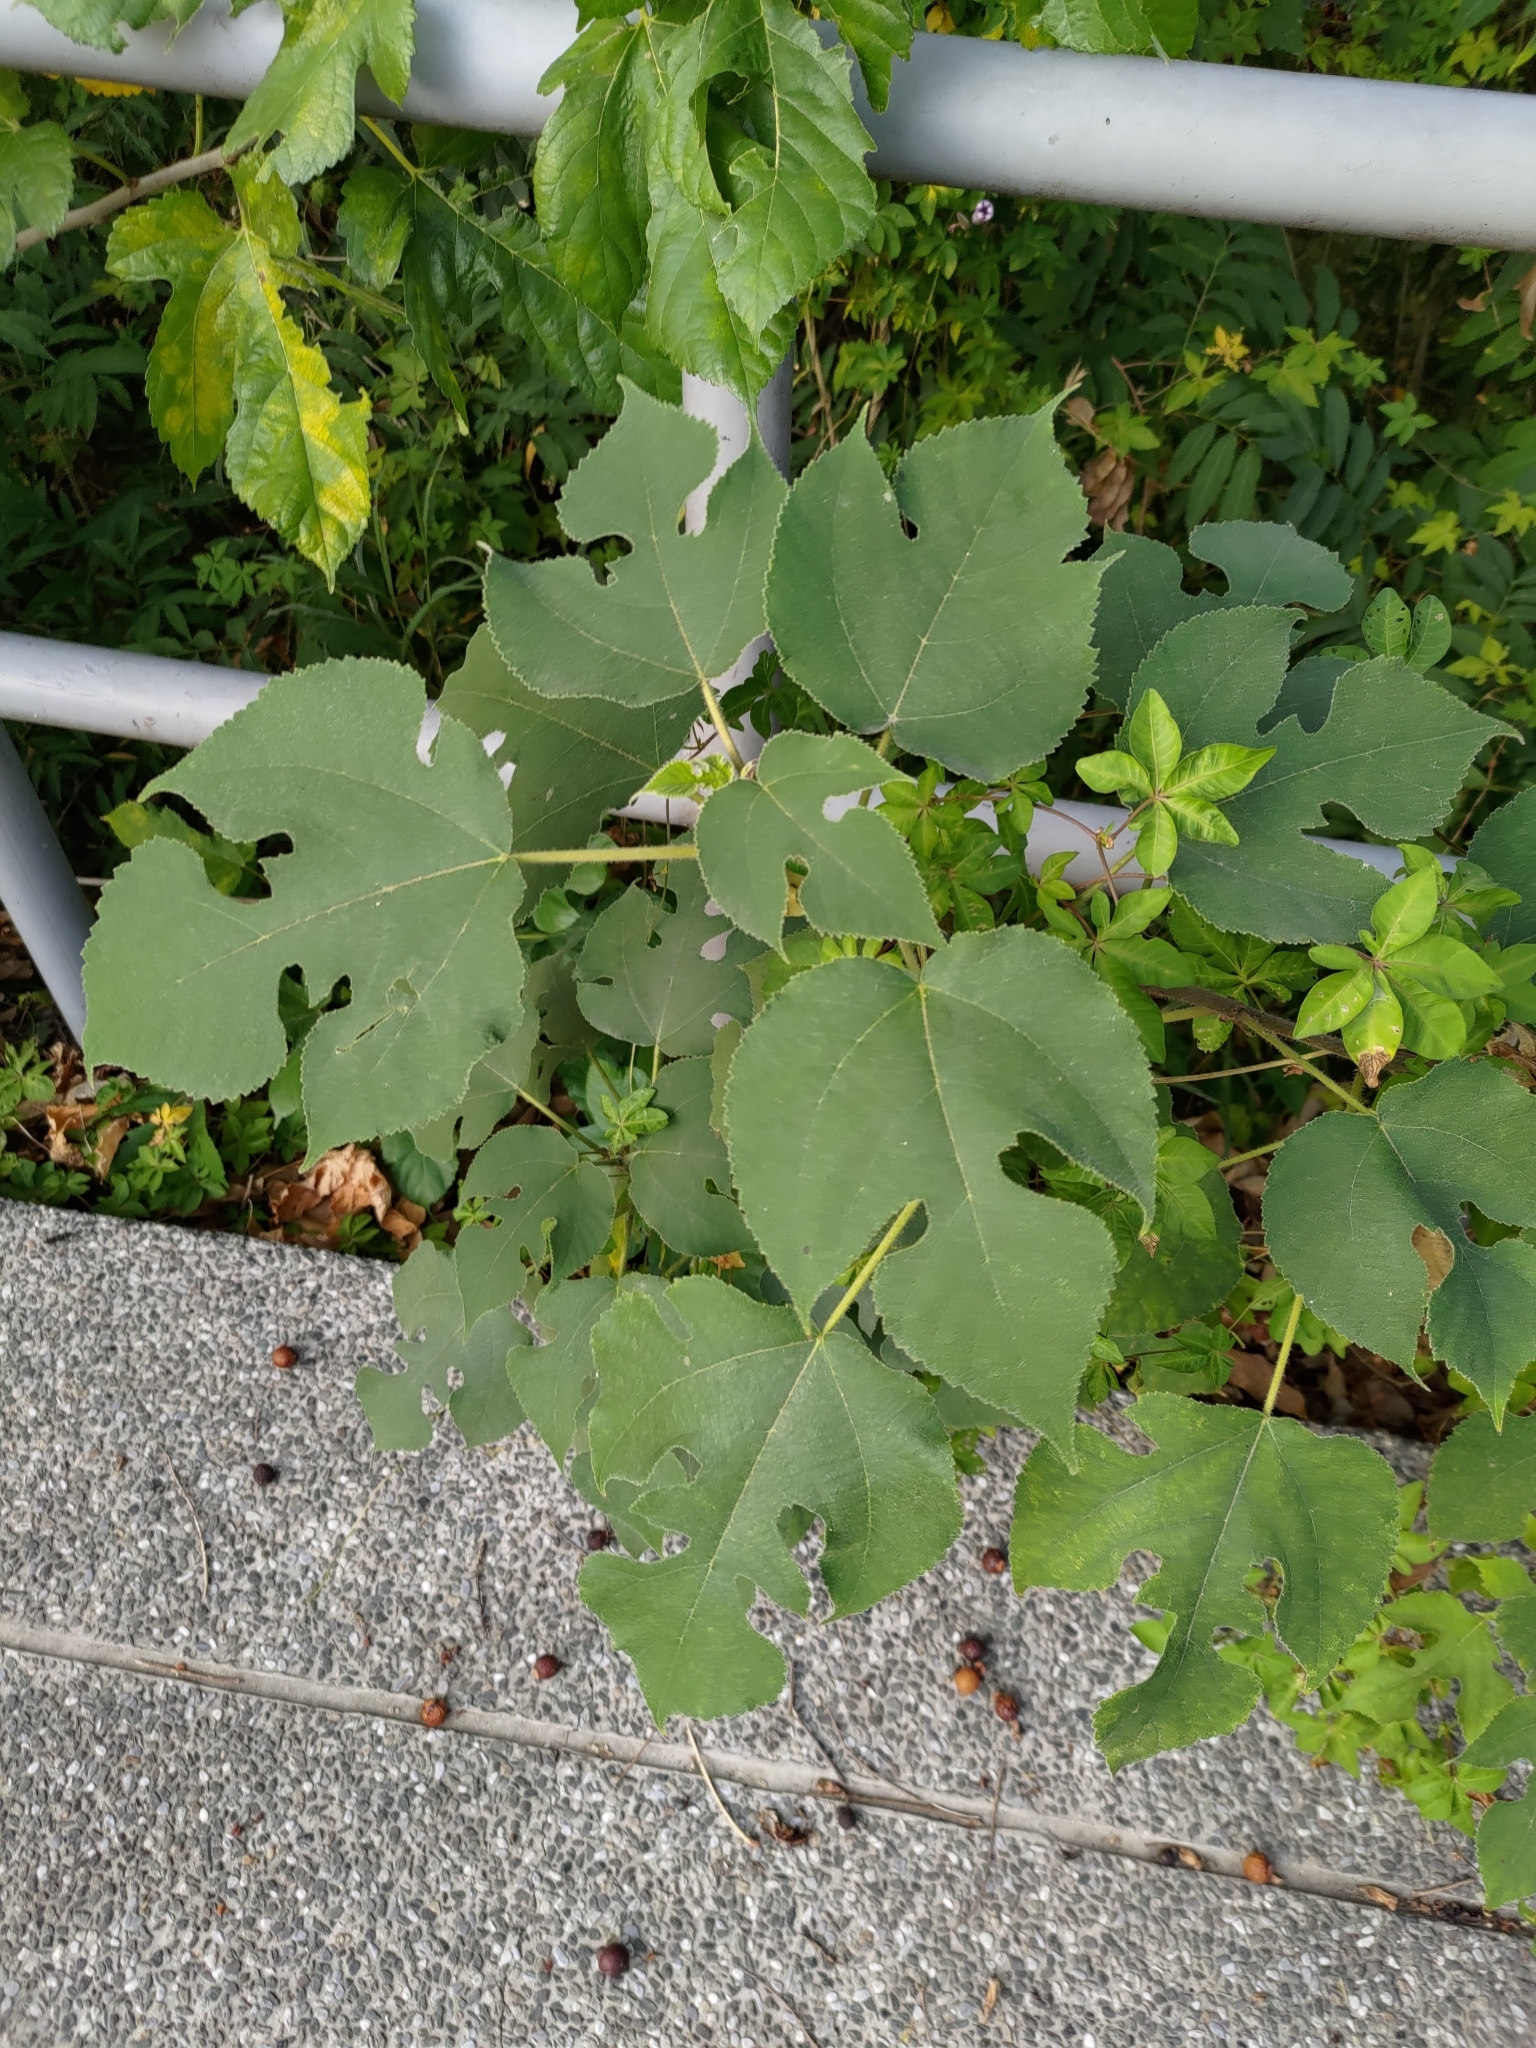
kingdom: Plantae
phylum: Tracheophyta
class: Magnoliopsida
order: Rosales
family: Moraceae
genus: Broussonetia
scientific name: Broussonetia papyrifera
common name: Paper mulberry
